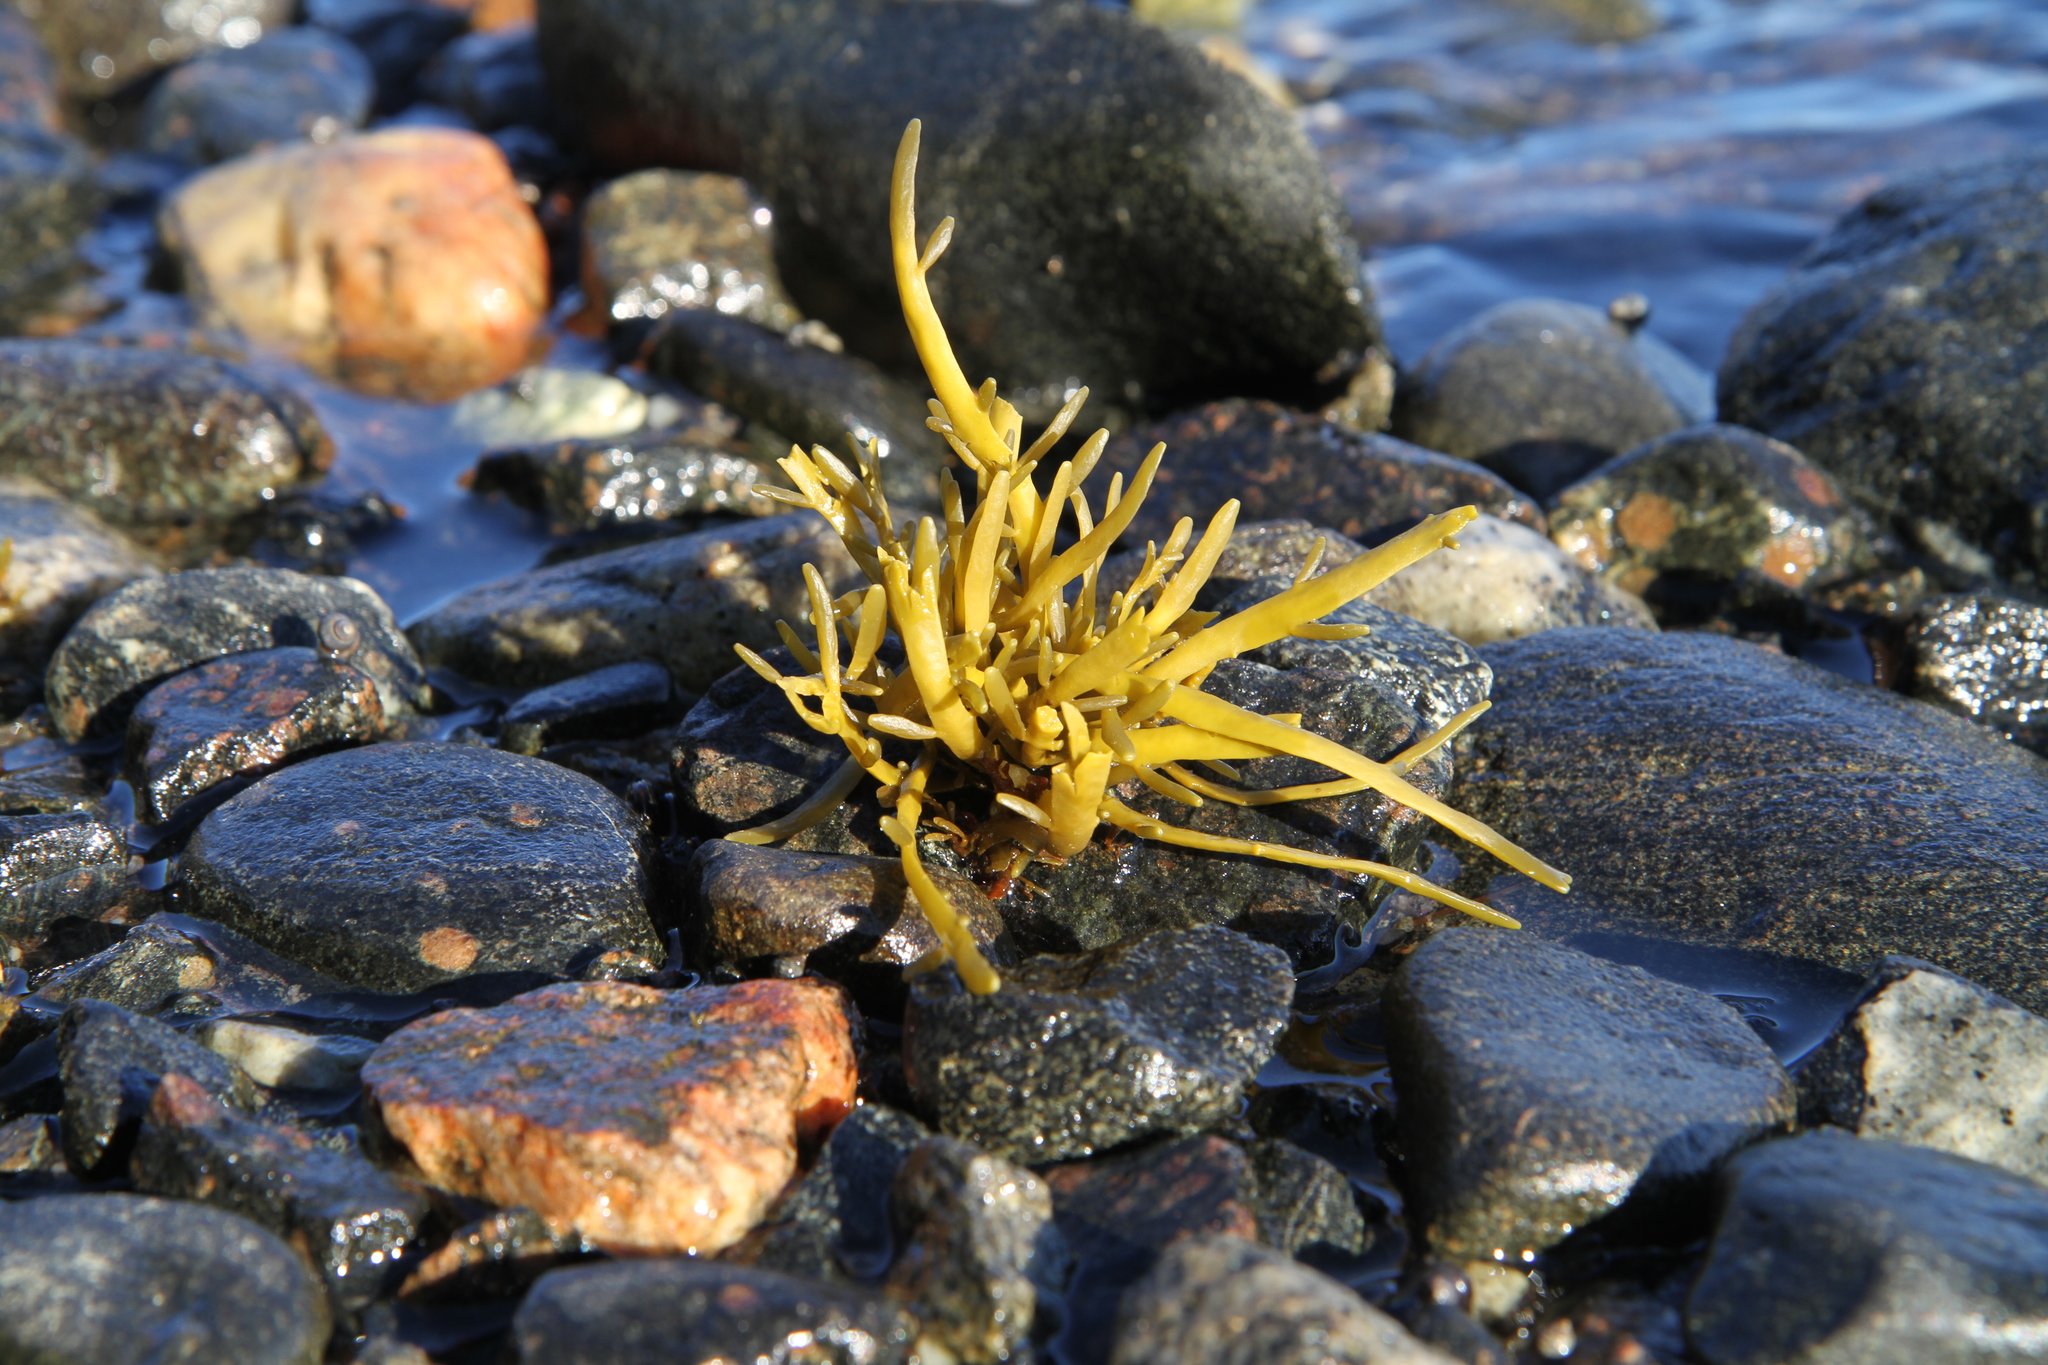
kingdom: Chromista
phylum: Ochrophyta
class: Phaeophyceae
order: Fucales
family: Fucaceae
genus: Ascophyllum
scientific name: Ascophyllum nodosum
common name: Knotted wrack
